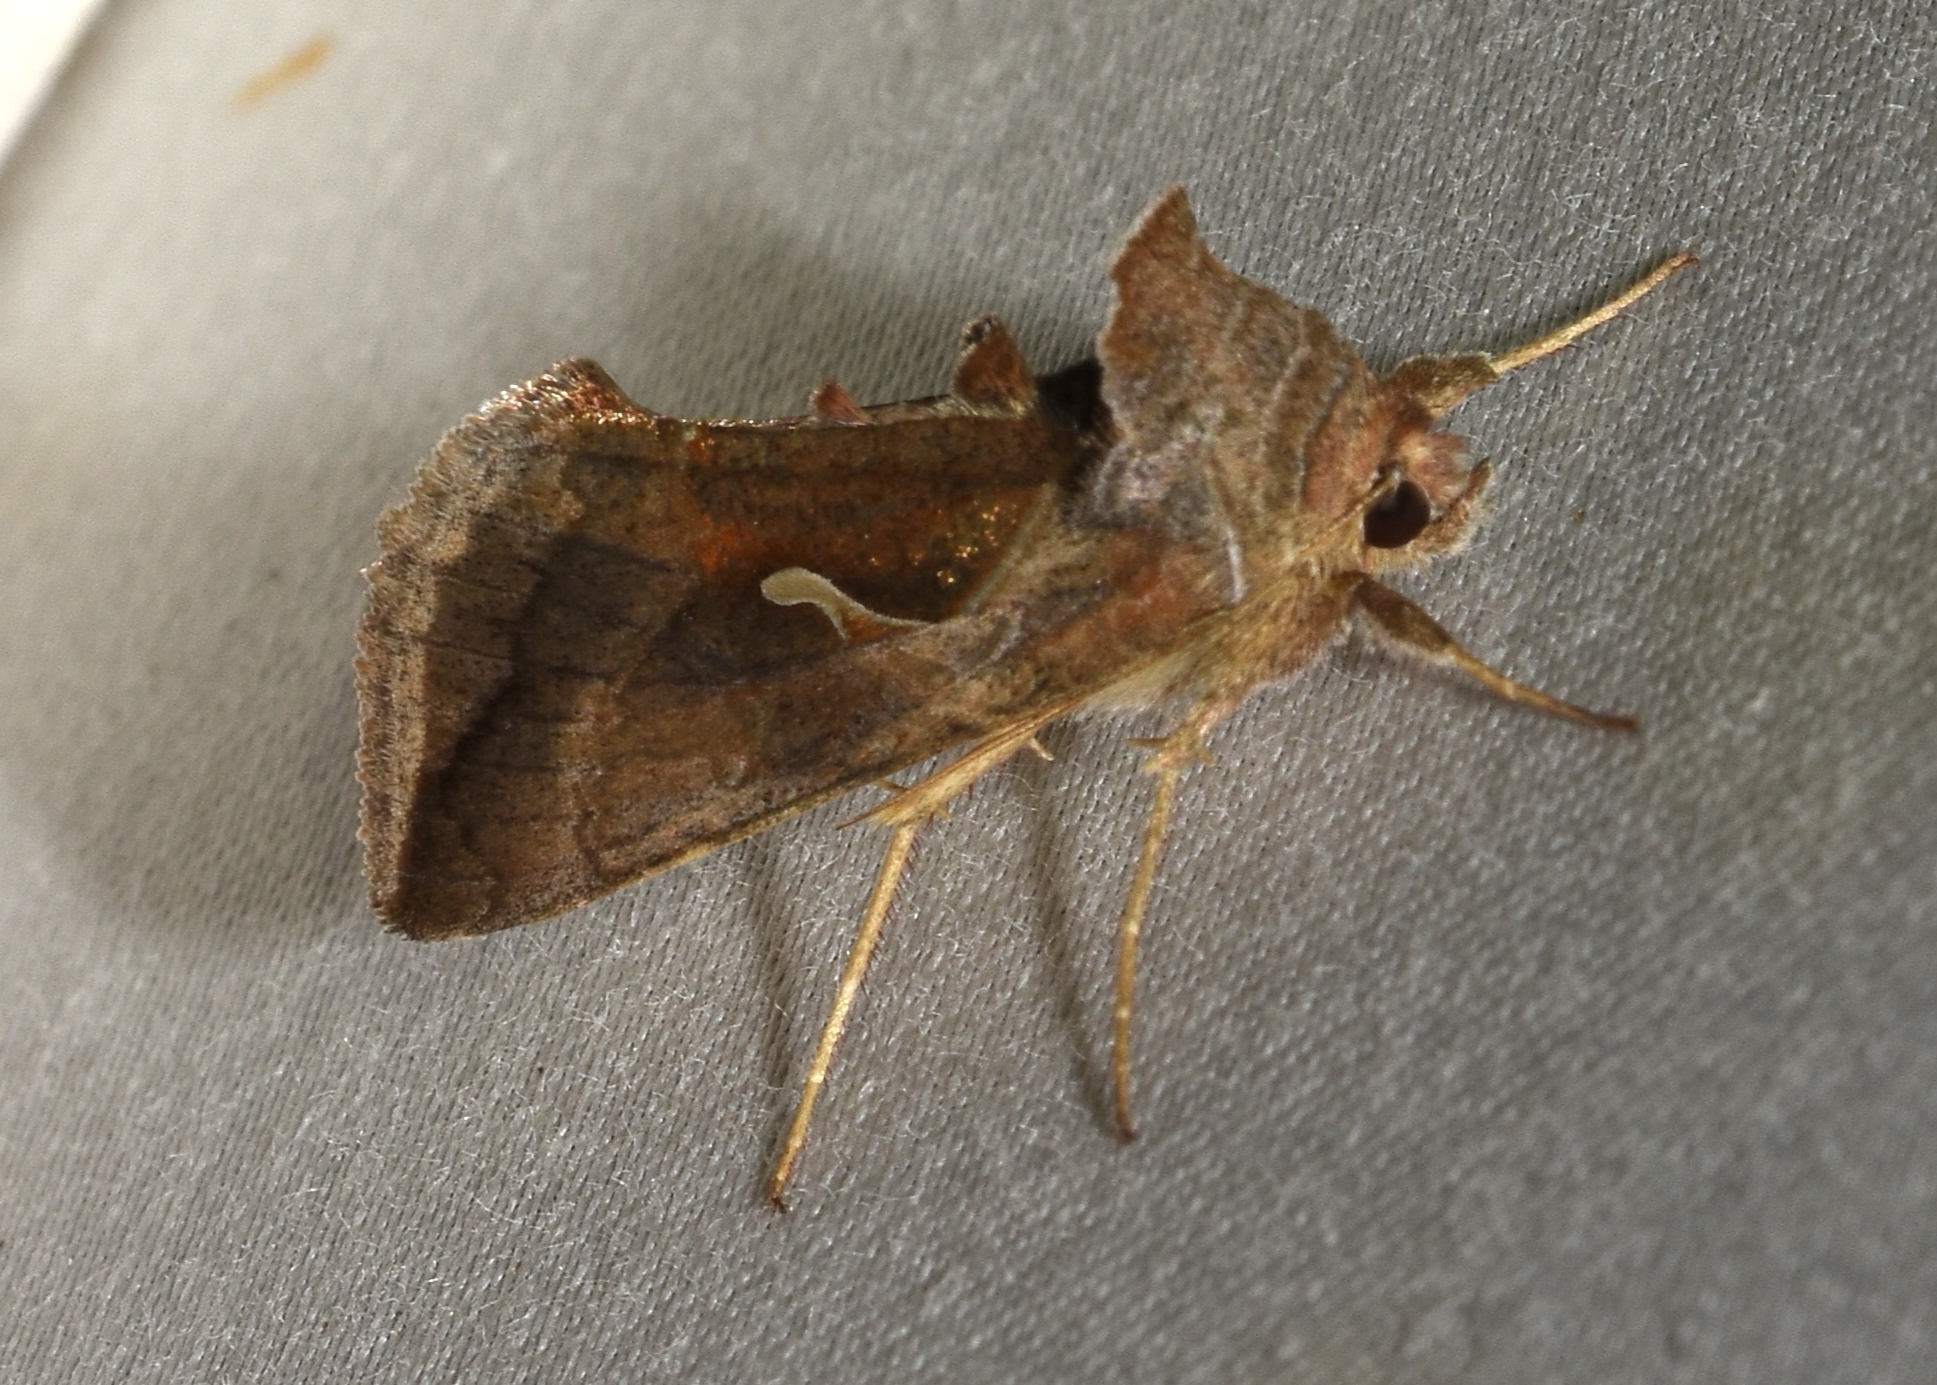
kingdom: Animalia
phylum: Arthropoda
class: Insecta
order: Lepidoptera
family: Noctuidae
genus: Anagrapha
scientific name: Anagrapha falcifera
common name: Celery looper
